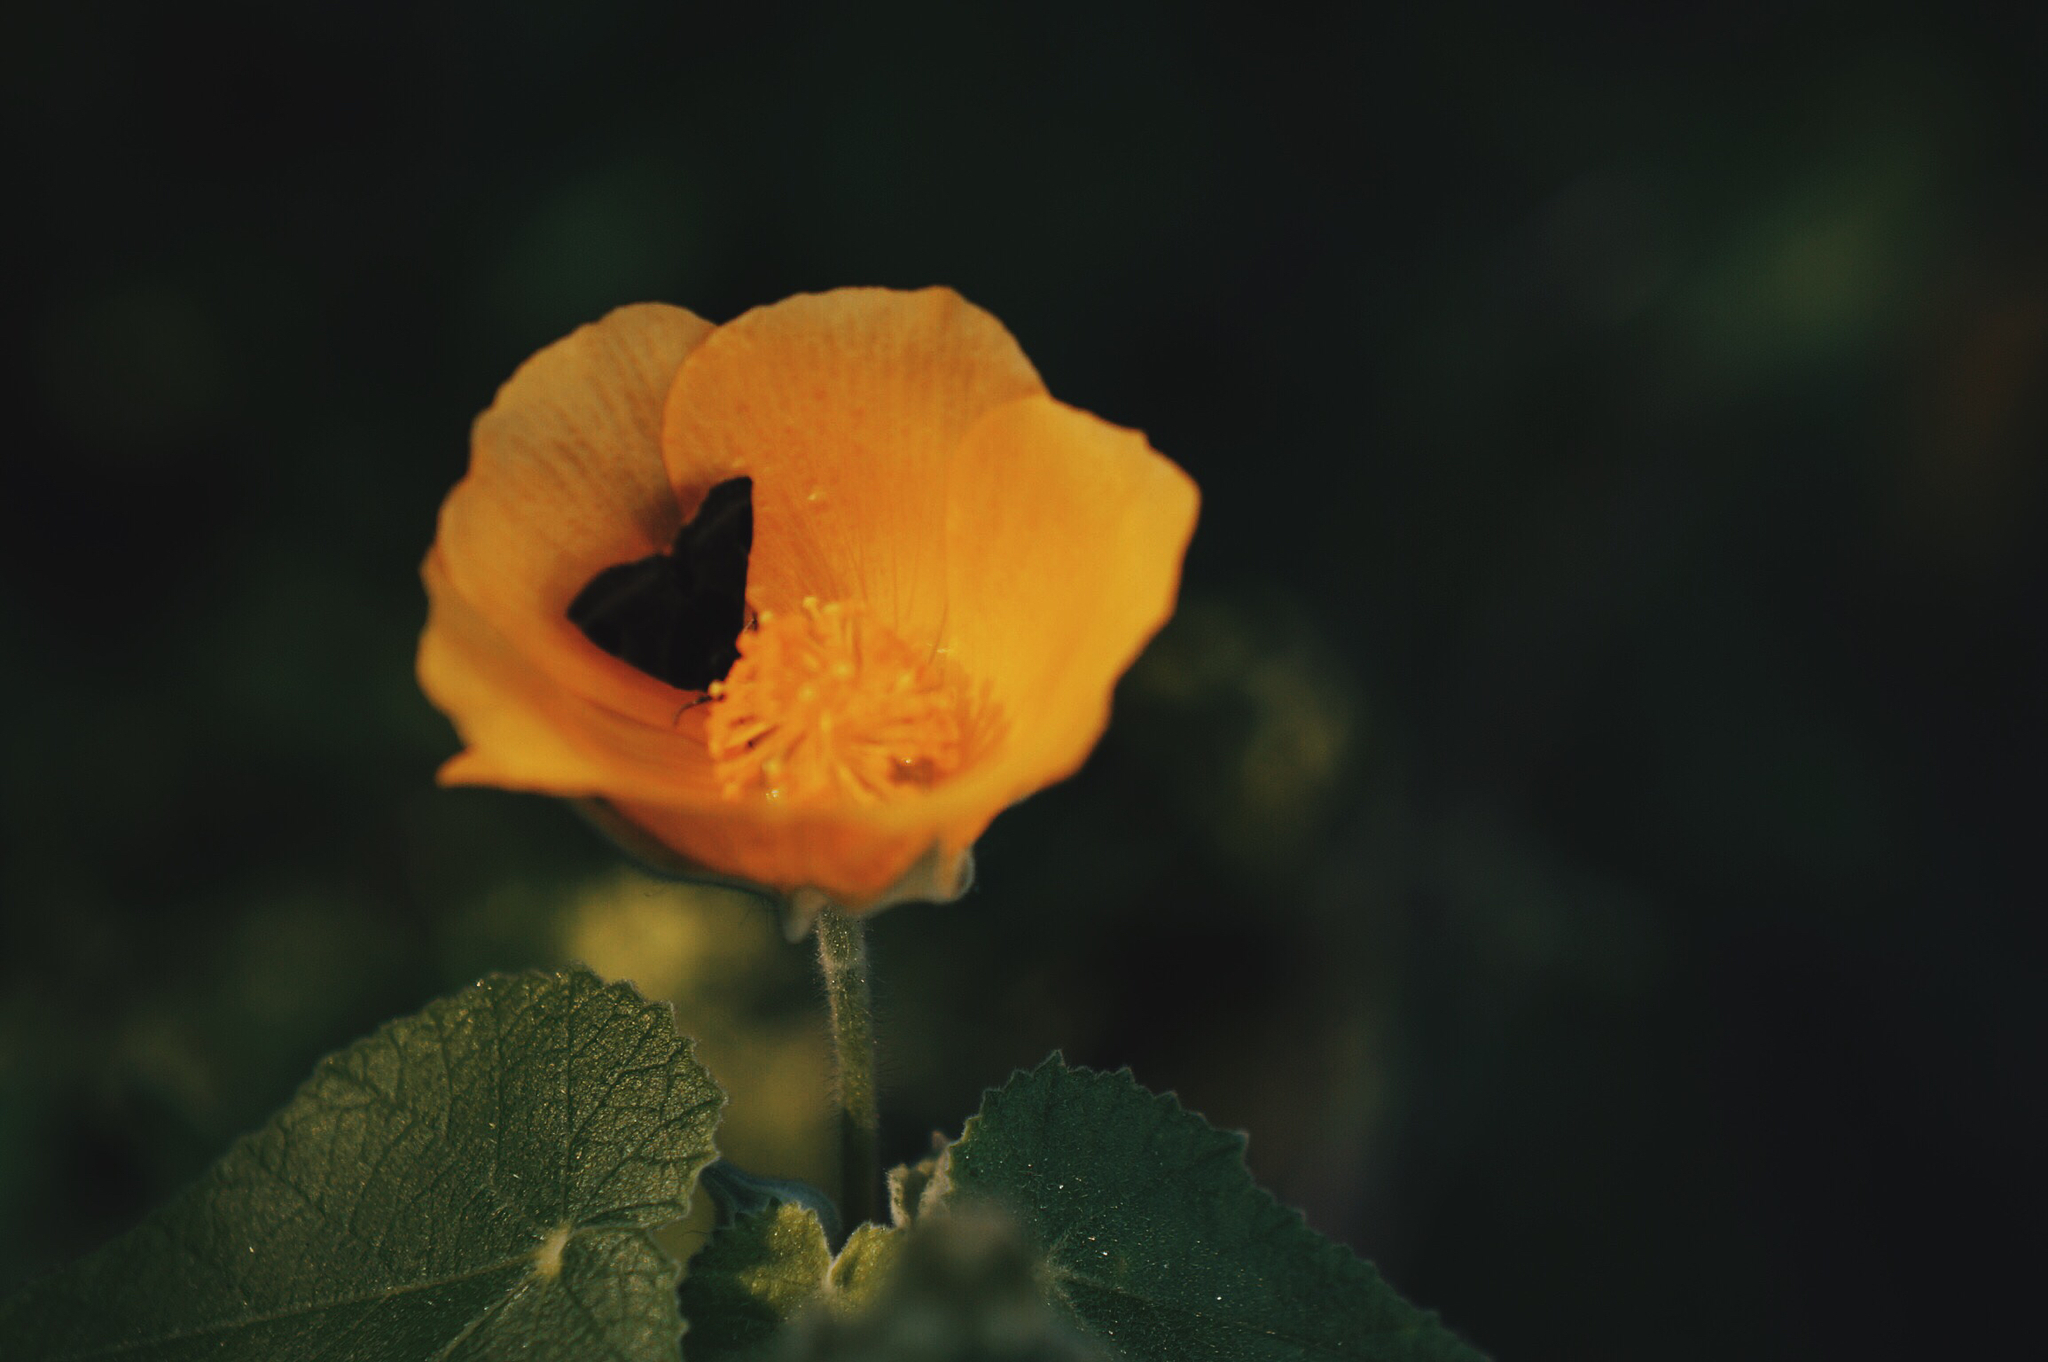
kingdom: Plantae
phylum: Tracheophyta
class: Magnoliopsida
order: Malvales
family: Malvaceae
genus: Abutilon
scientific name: Abutilon hypoleucum
